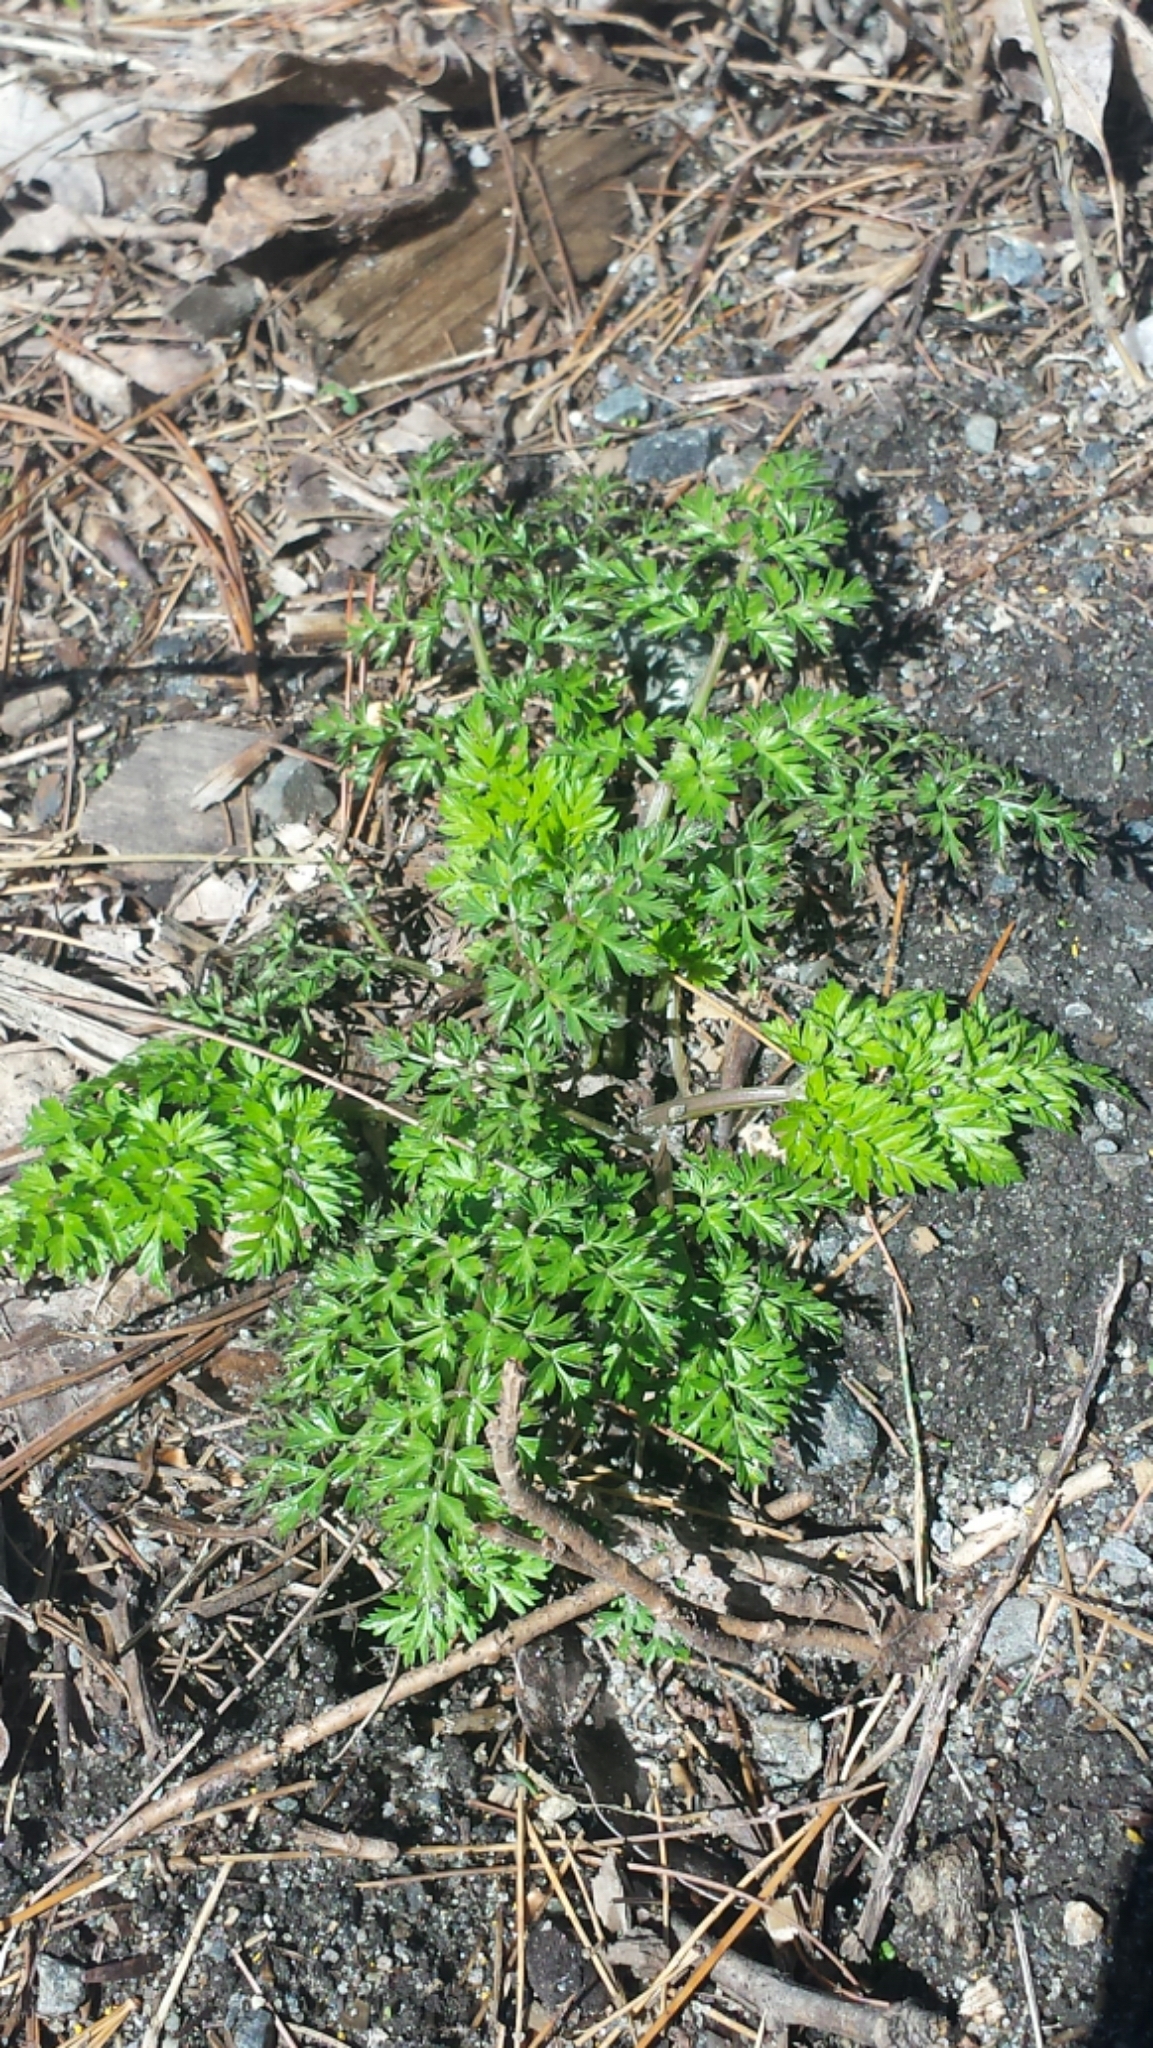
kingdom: Plantae
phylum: Tracheophyta
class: Magnoliopsida
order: Apiales
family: Apiaceae
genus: Anthriscus
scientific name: Anthriscus sylvestris
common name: Cow parsley
